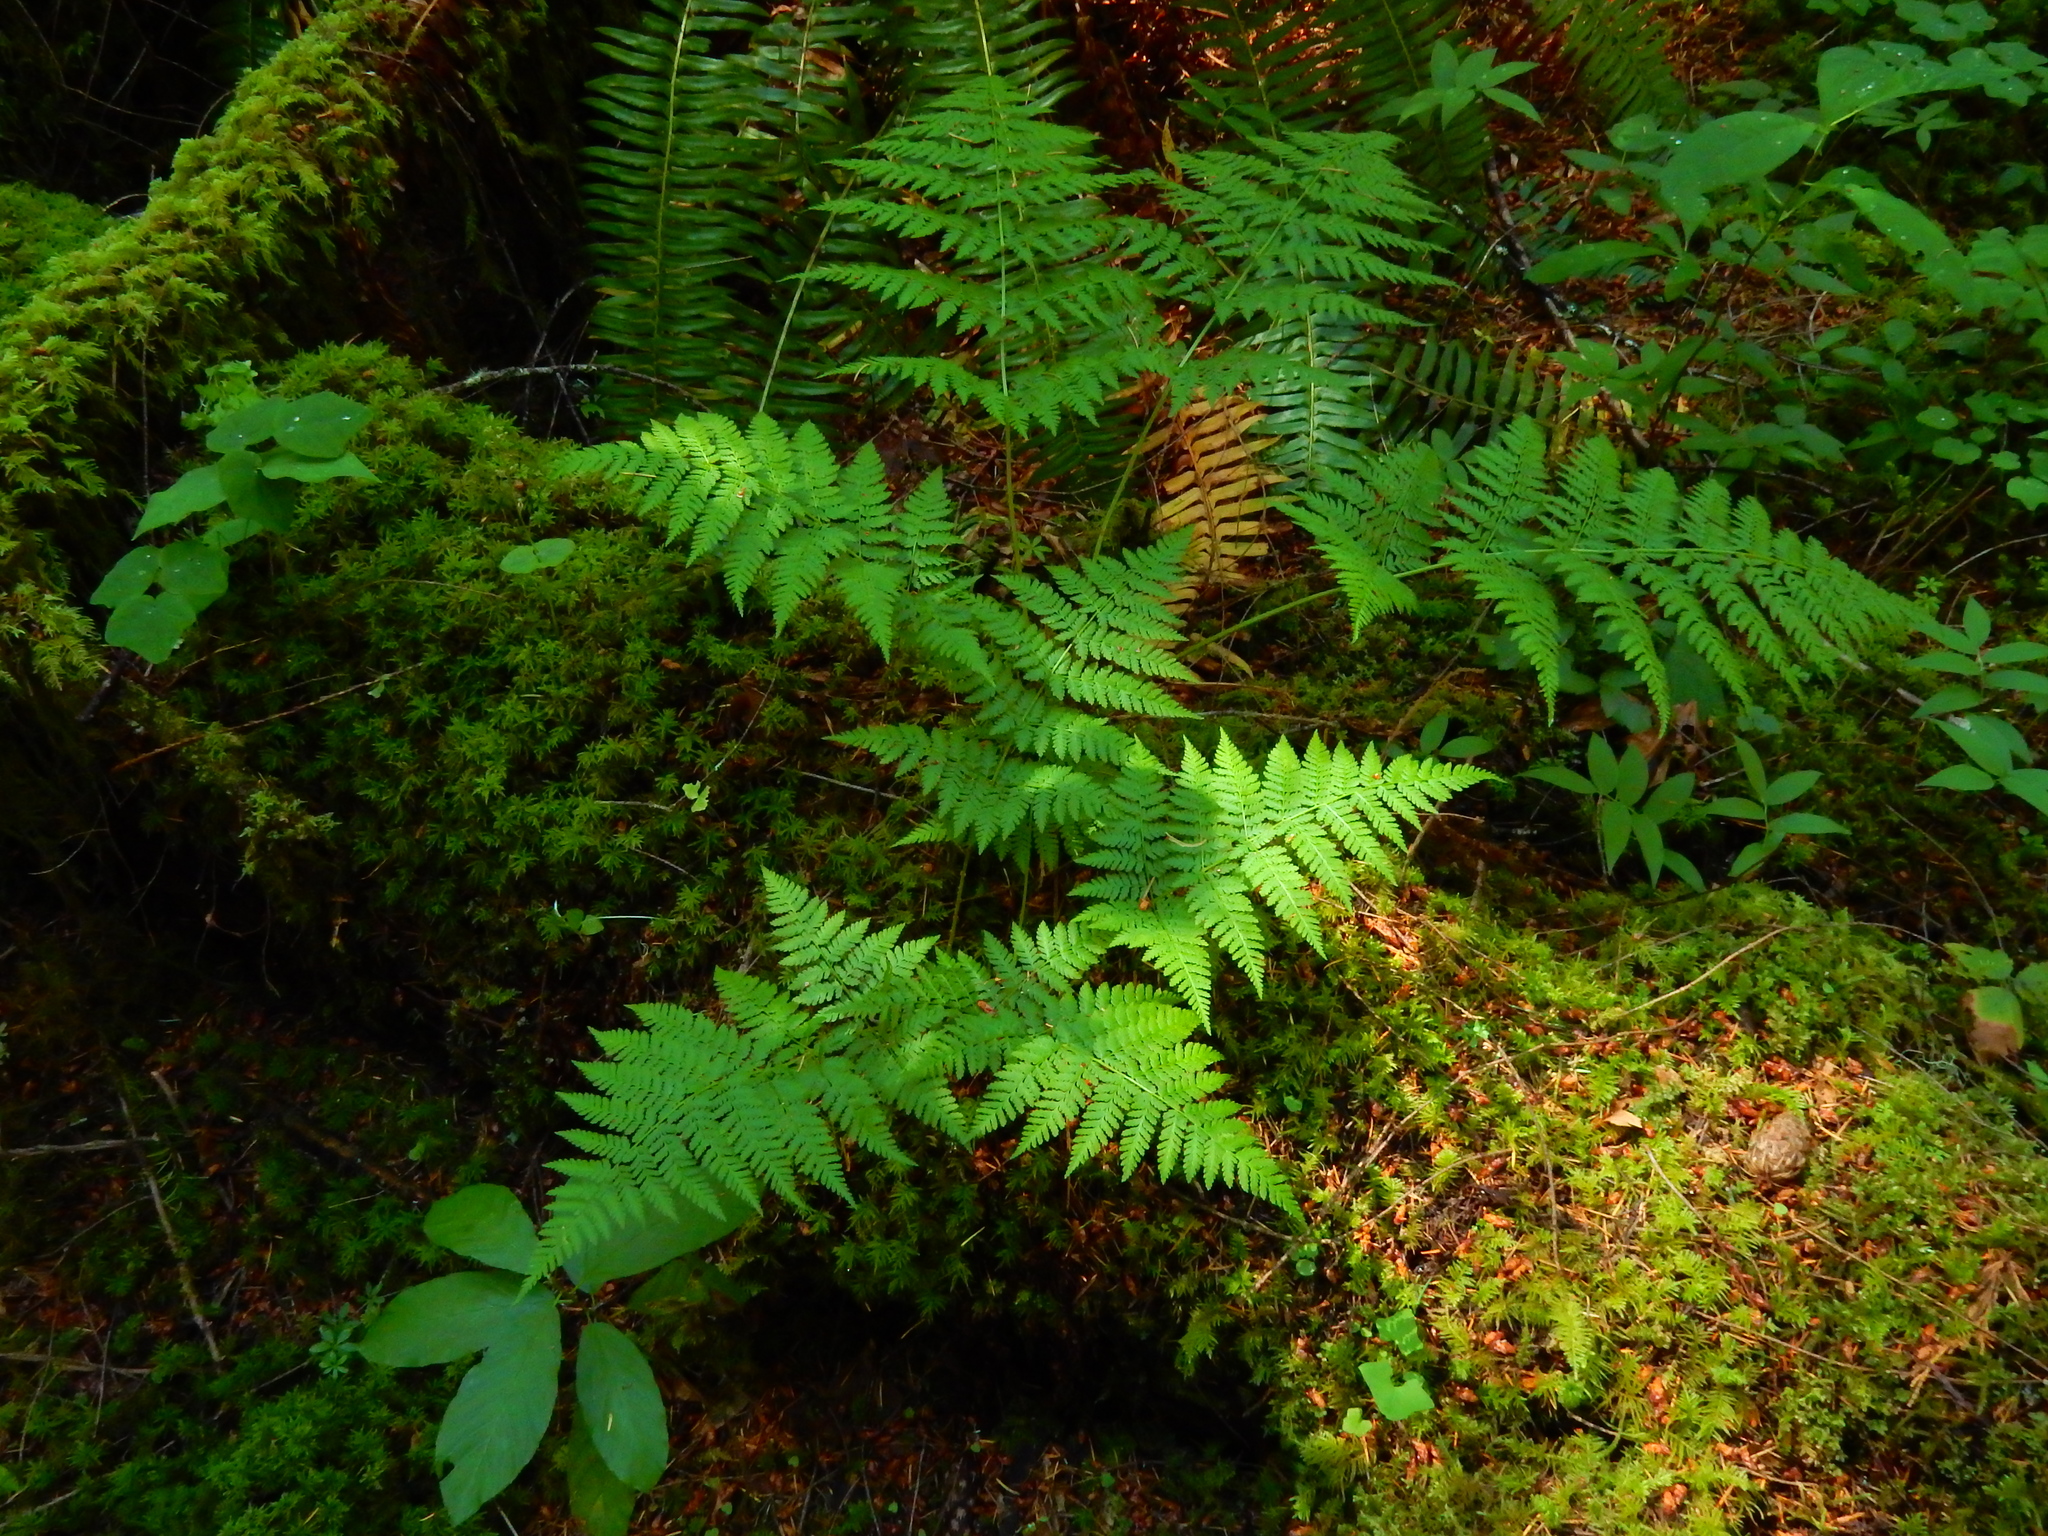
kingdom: Plantae
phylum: Tracheophyta
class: Polypodiopsida
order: Polypodiales
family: Dryopteridaceae
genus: Dryopteris
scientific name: Dryopteris expansa
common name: Northern buckler fern
